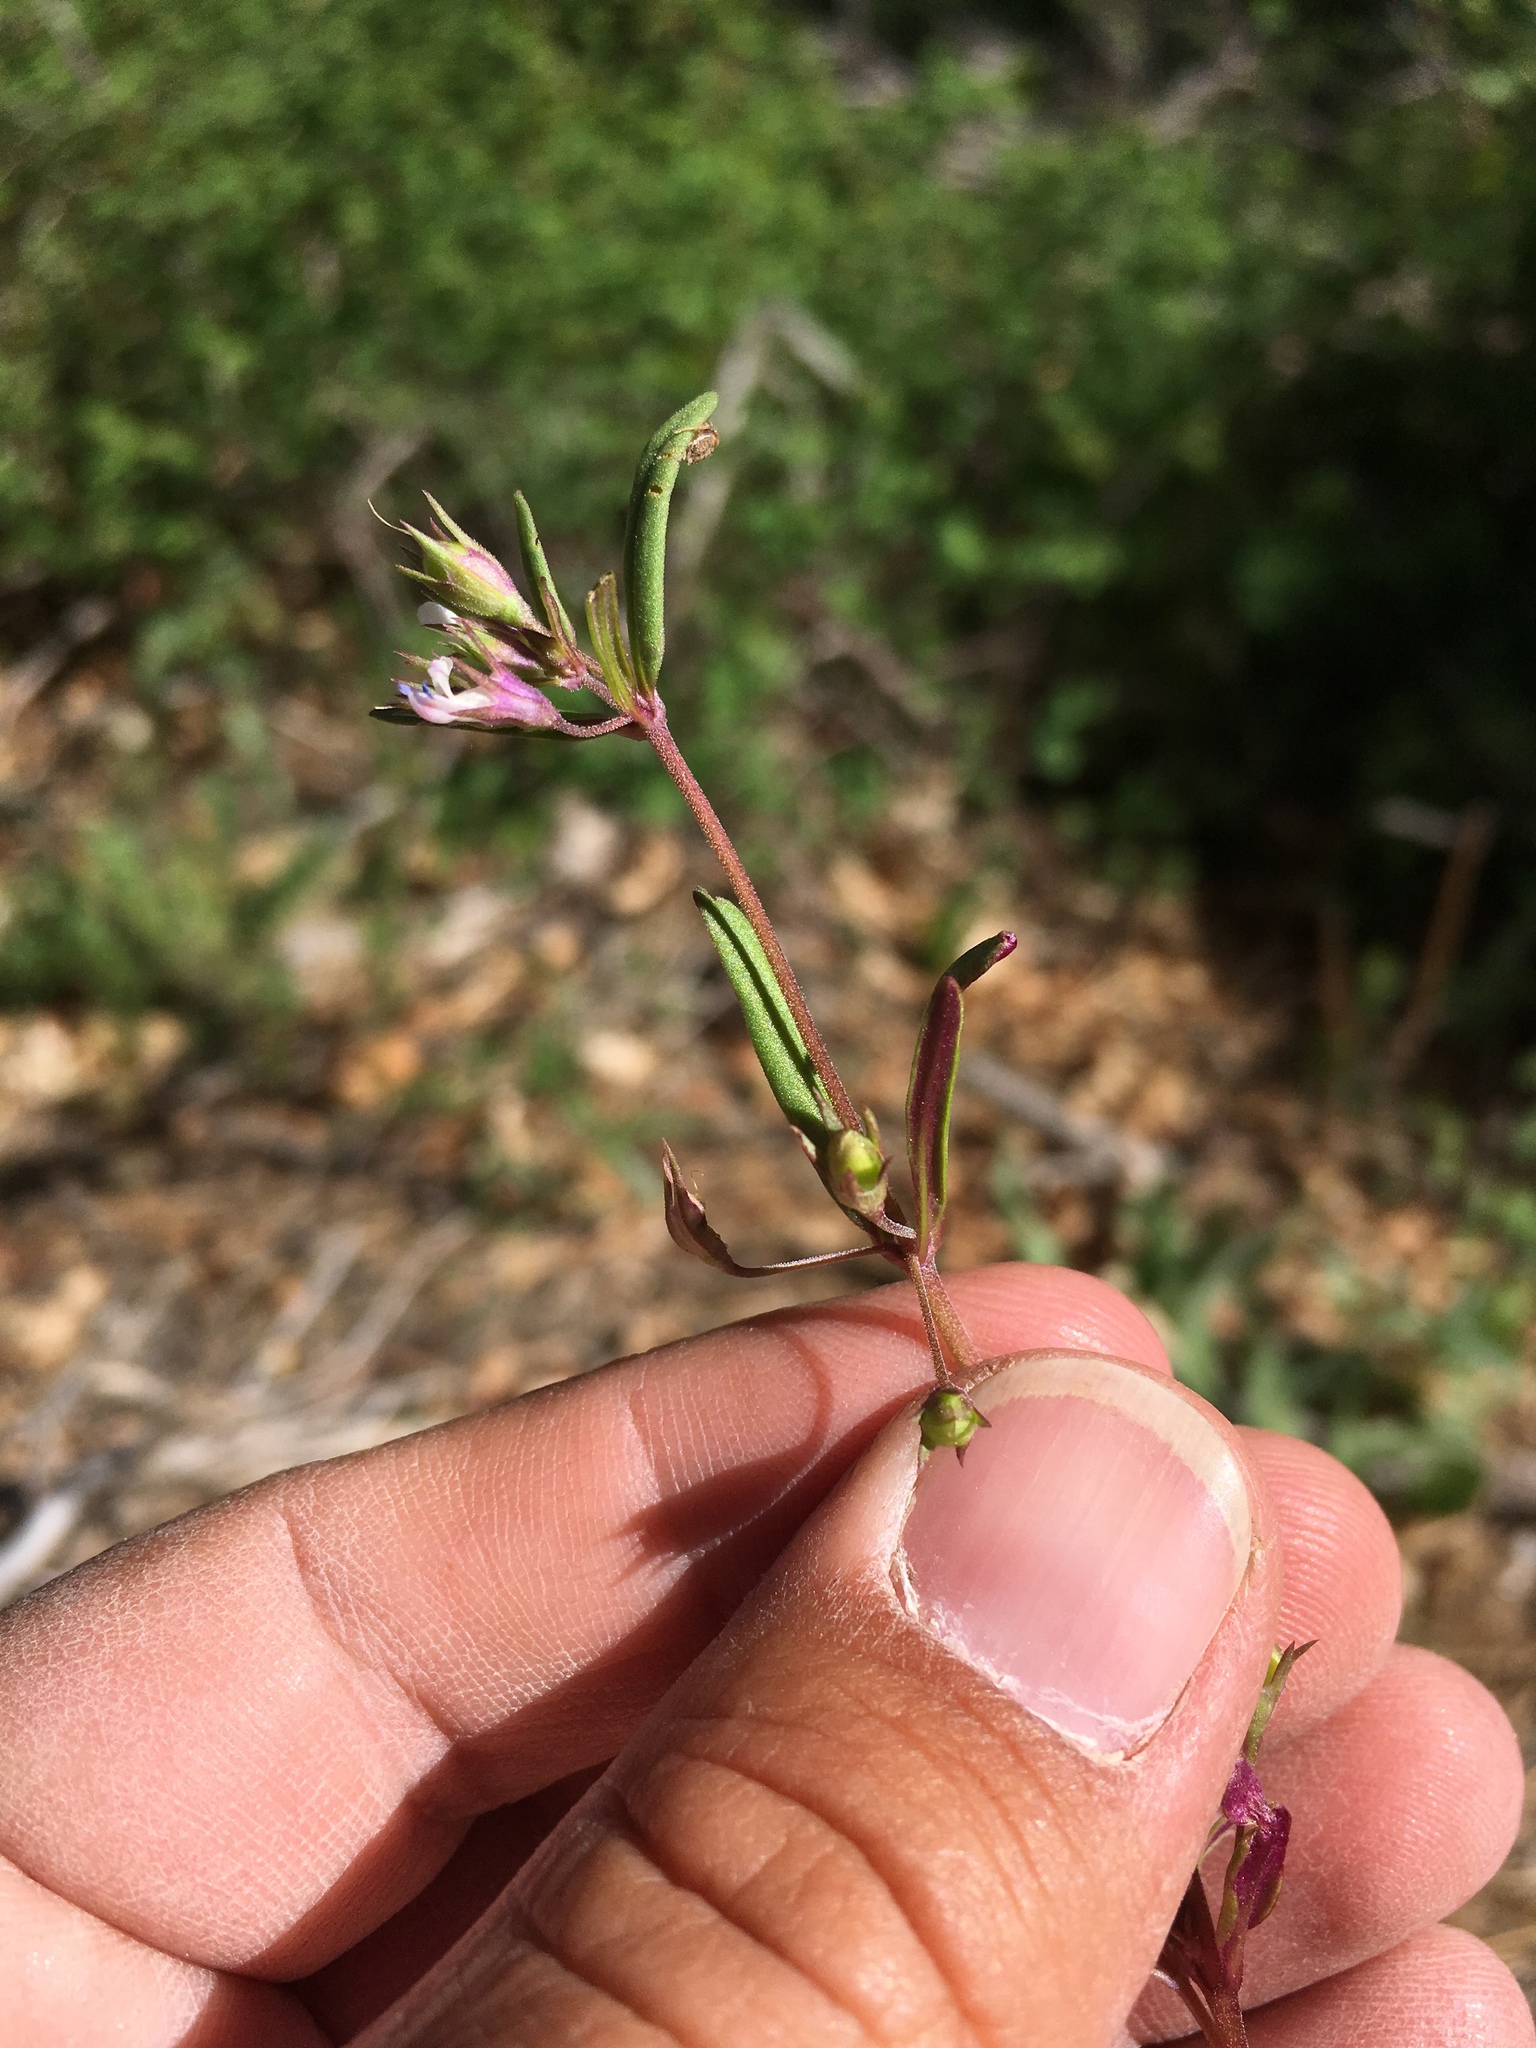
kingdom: Plantae
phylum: Tracheophyta
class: Magnoliopsida
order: Lamiales
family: Plantaginaceae
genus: Collinsia
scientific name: Collinsia parviflora
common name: Blue-lips
